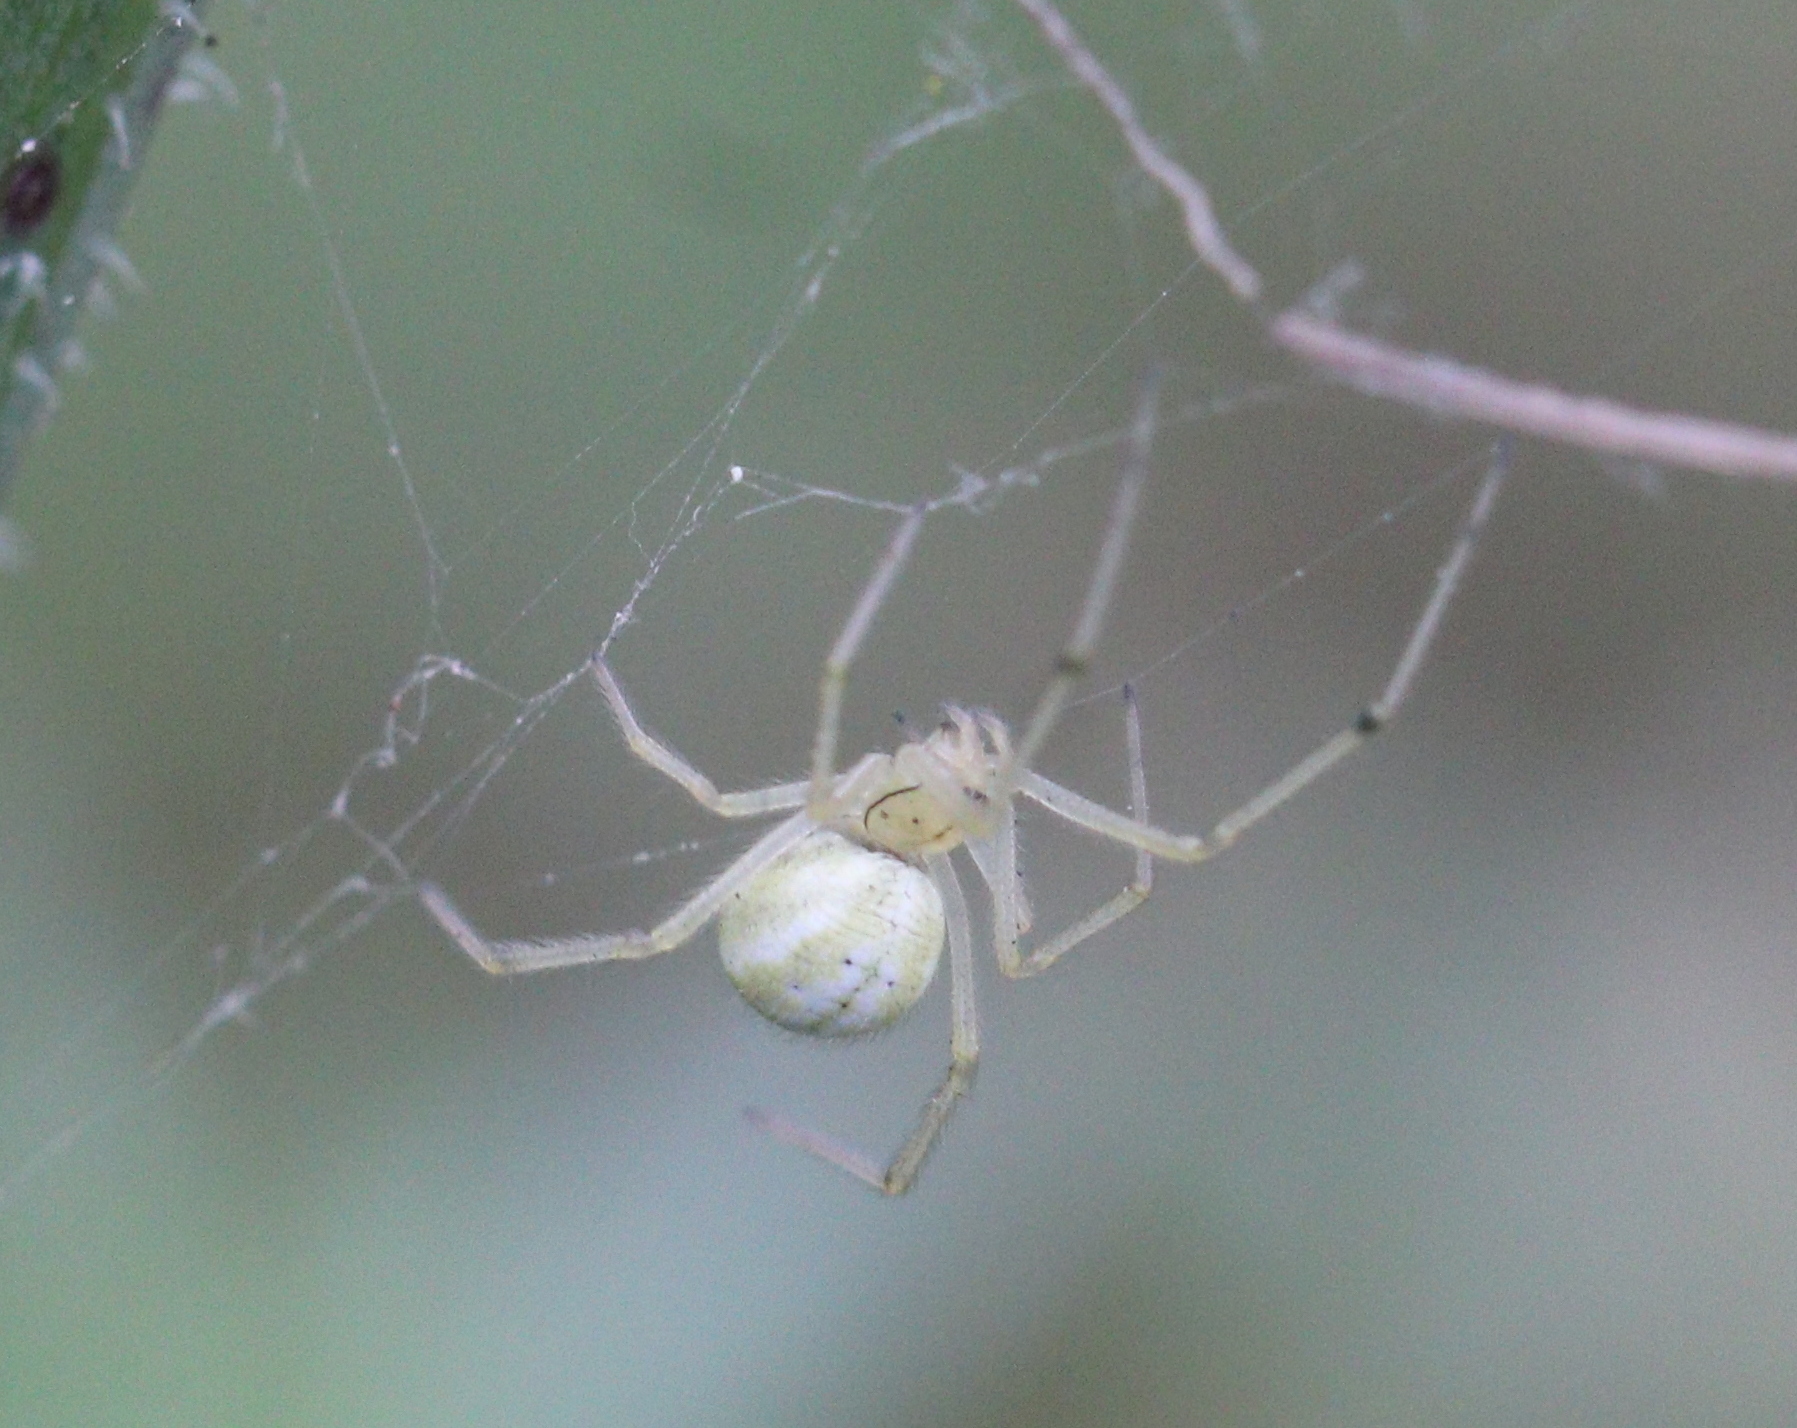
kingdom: Animalia
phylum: Arthropoda
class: Arachnida
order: Araneae
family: Theridiidae
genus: Enoplognatha
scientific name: Enoplognatha
